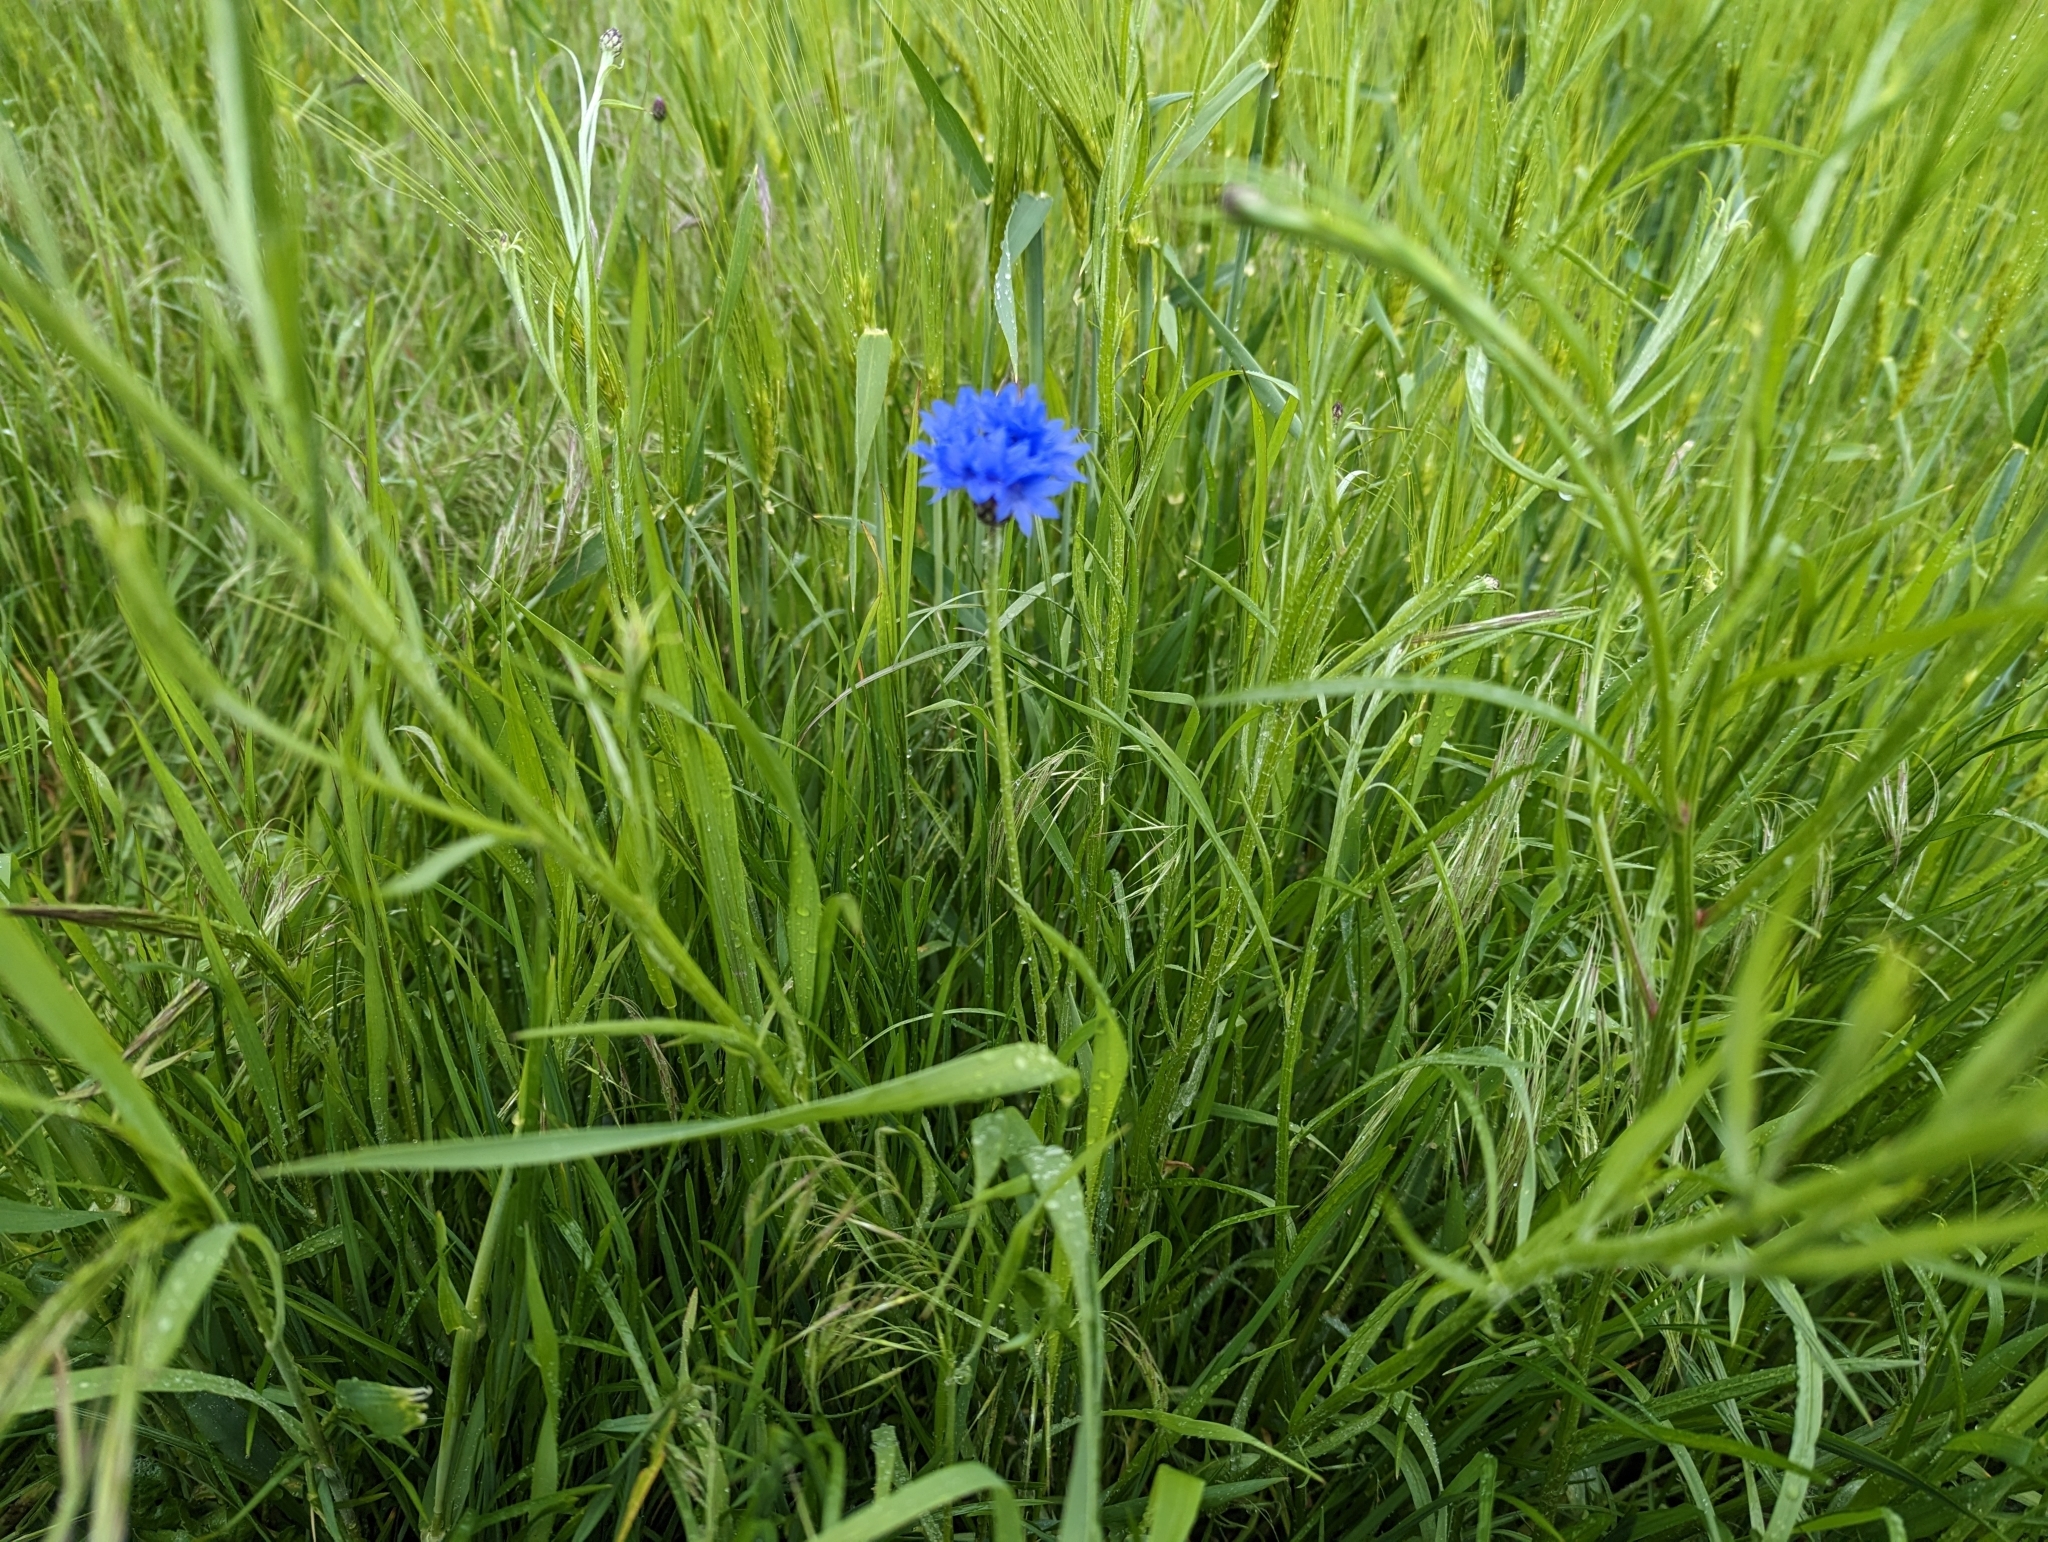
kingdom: Plantae
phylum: Tracheophyta
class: Magnoliopsida
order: Asterales
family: Asteraceae
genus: Centaurea
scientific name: Centaurea cyanus
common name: Cornflower
